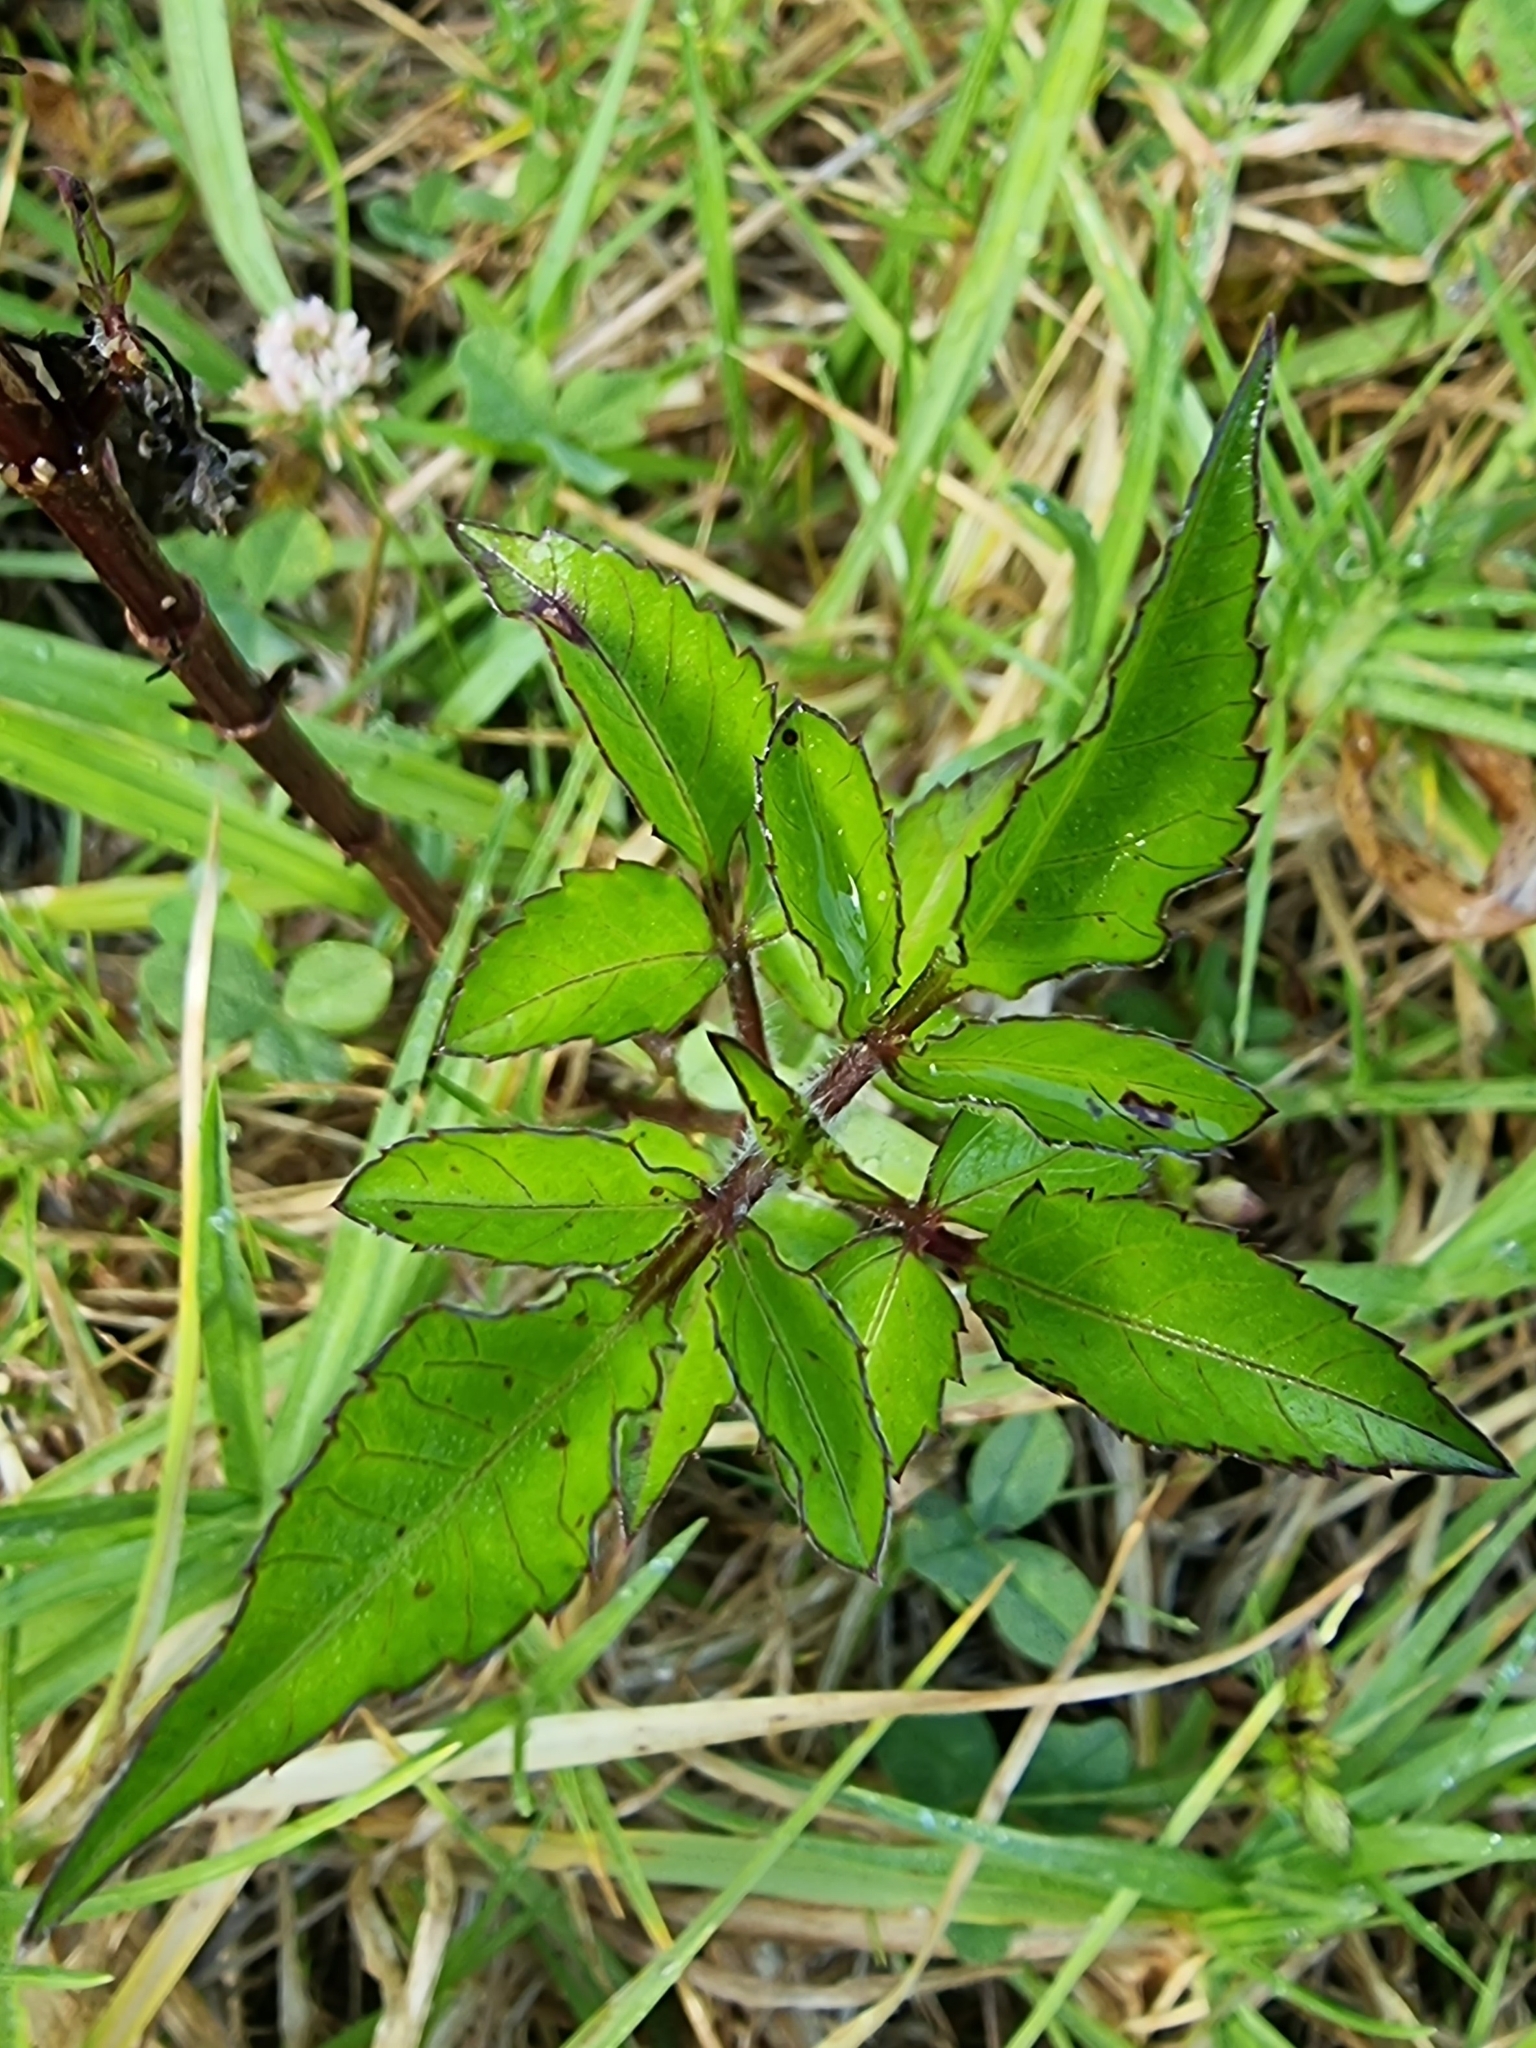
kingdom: Plantae
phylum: Tracheophyta
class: Magnoliopsida
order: Asterales
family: Asteraceae
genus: Bidens
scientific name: Bidens pilosa
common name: Black-jack
